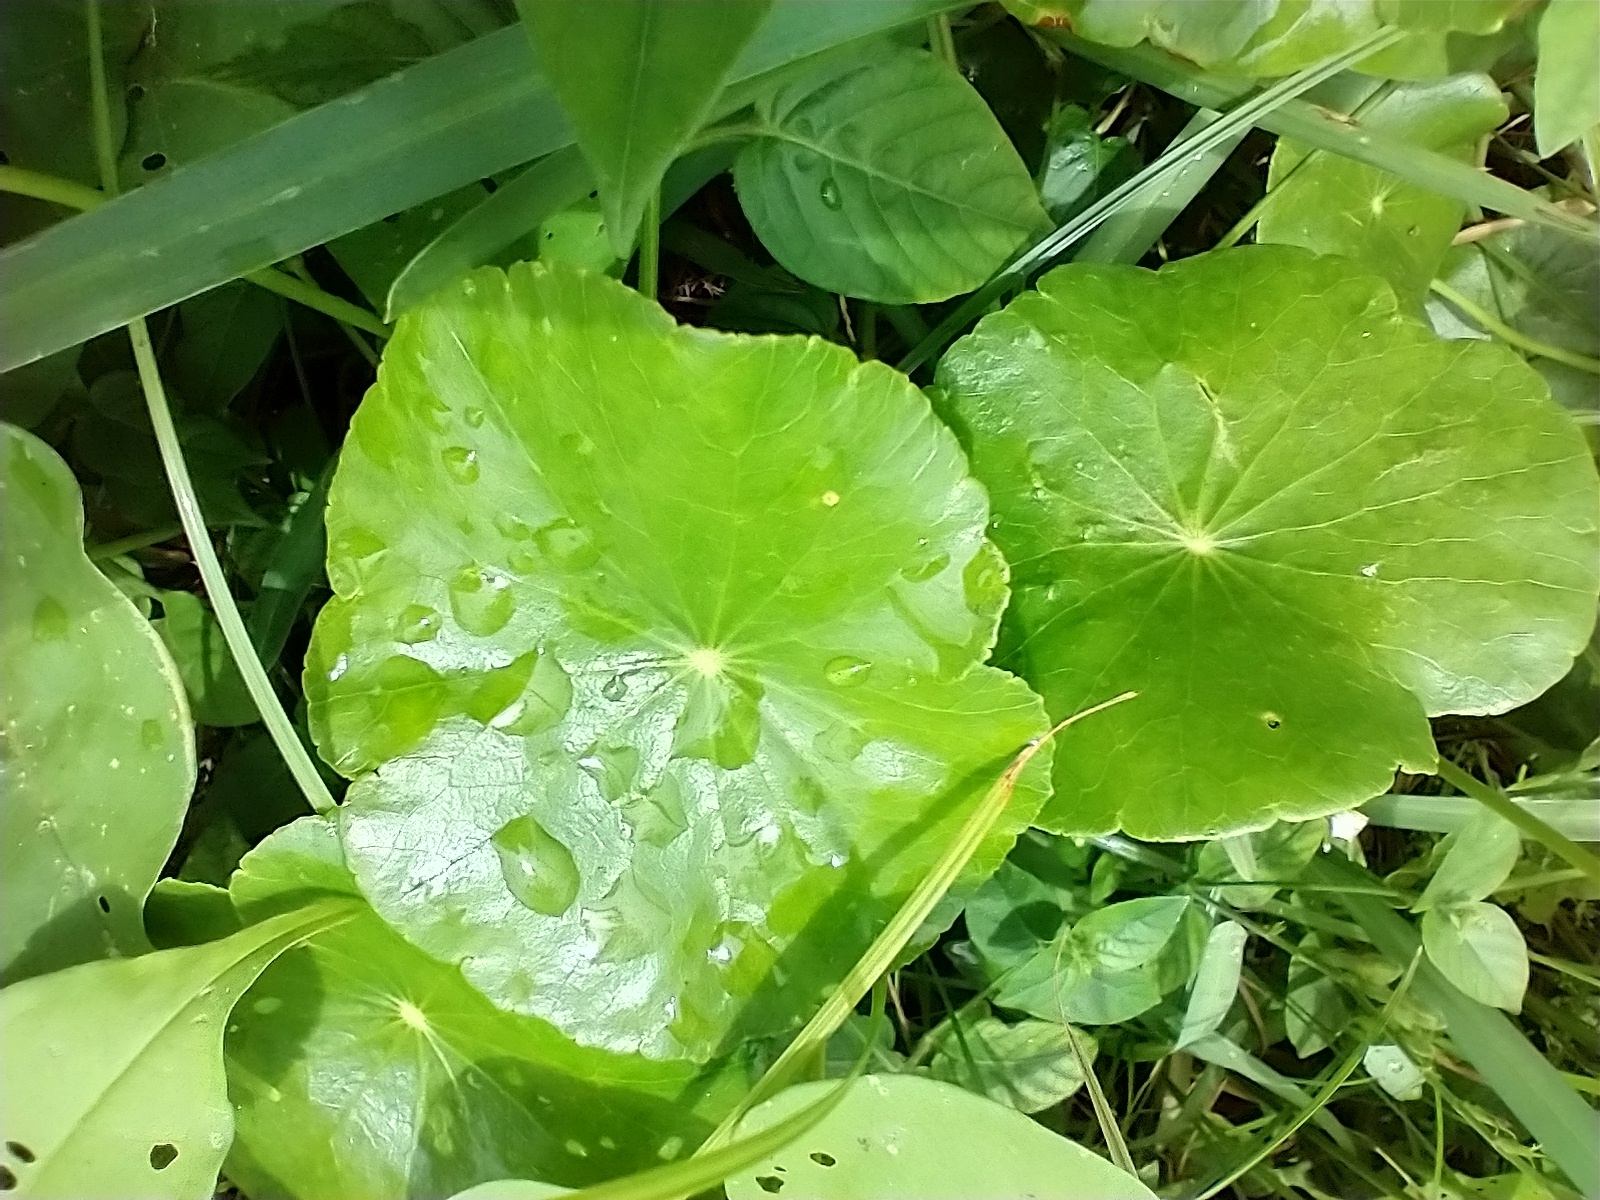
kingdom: Plantae
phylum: Tracheophyta
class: Magnoliopsida
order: Apiales
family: Araliaceae
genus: Hydrocotyle
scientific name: Hydrocotyle bonariensis
